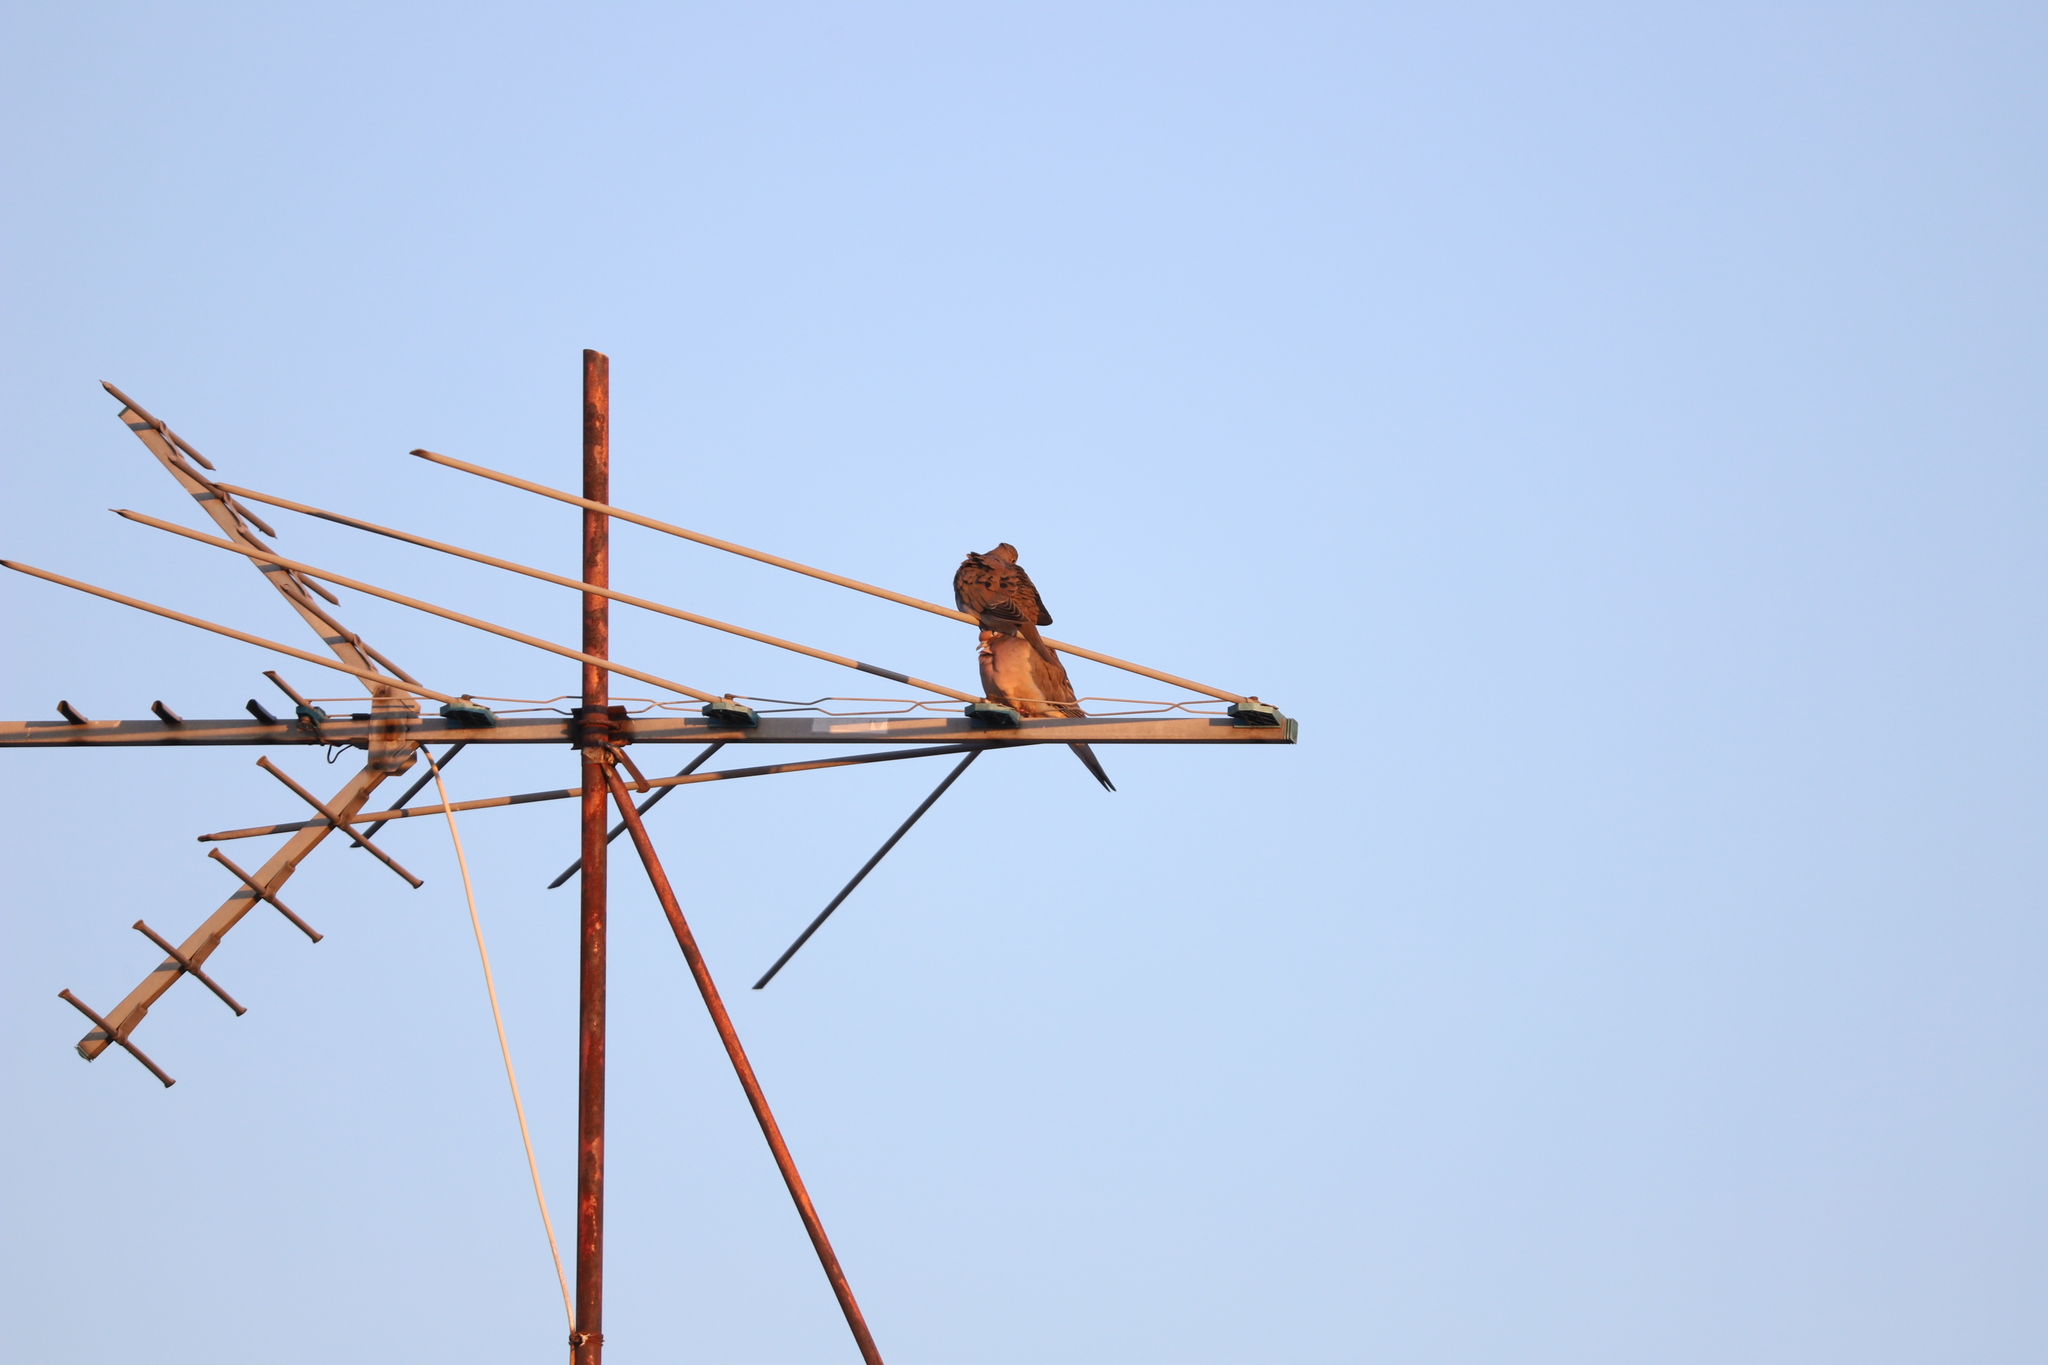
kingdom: Animalia
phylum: Chordata
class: Aves
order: Columbiformes
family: Columbidae
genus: Zenaida
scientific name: Zenaida macroura
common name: Mourning dove
